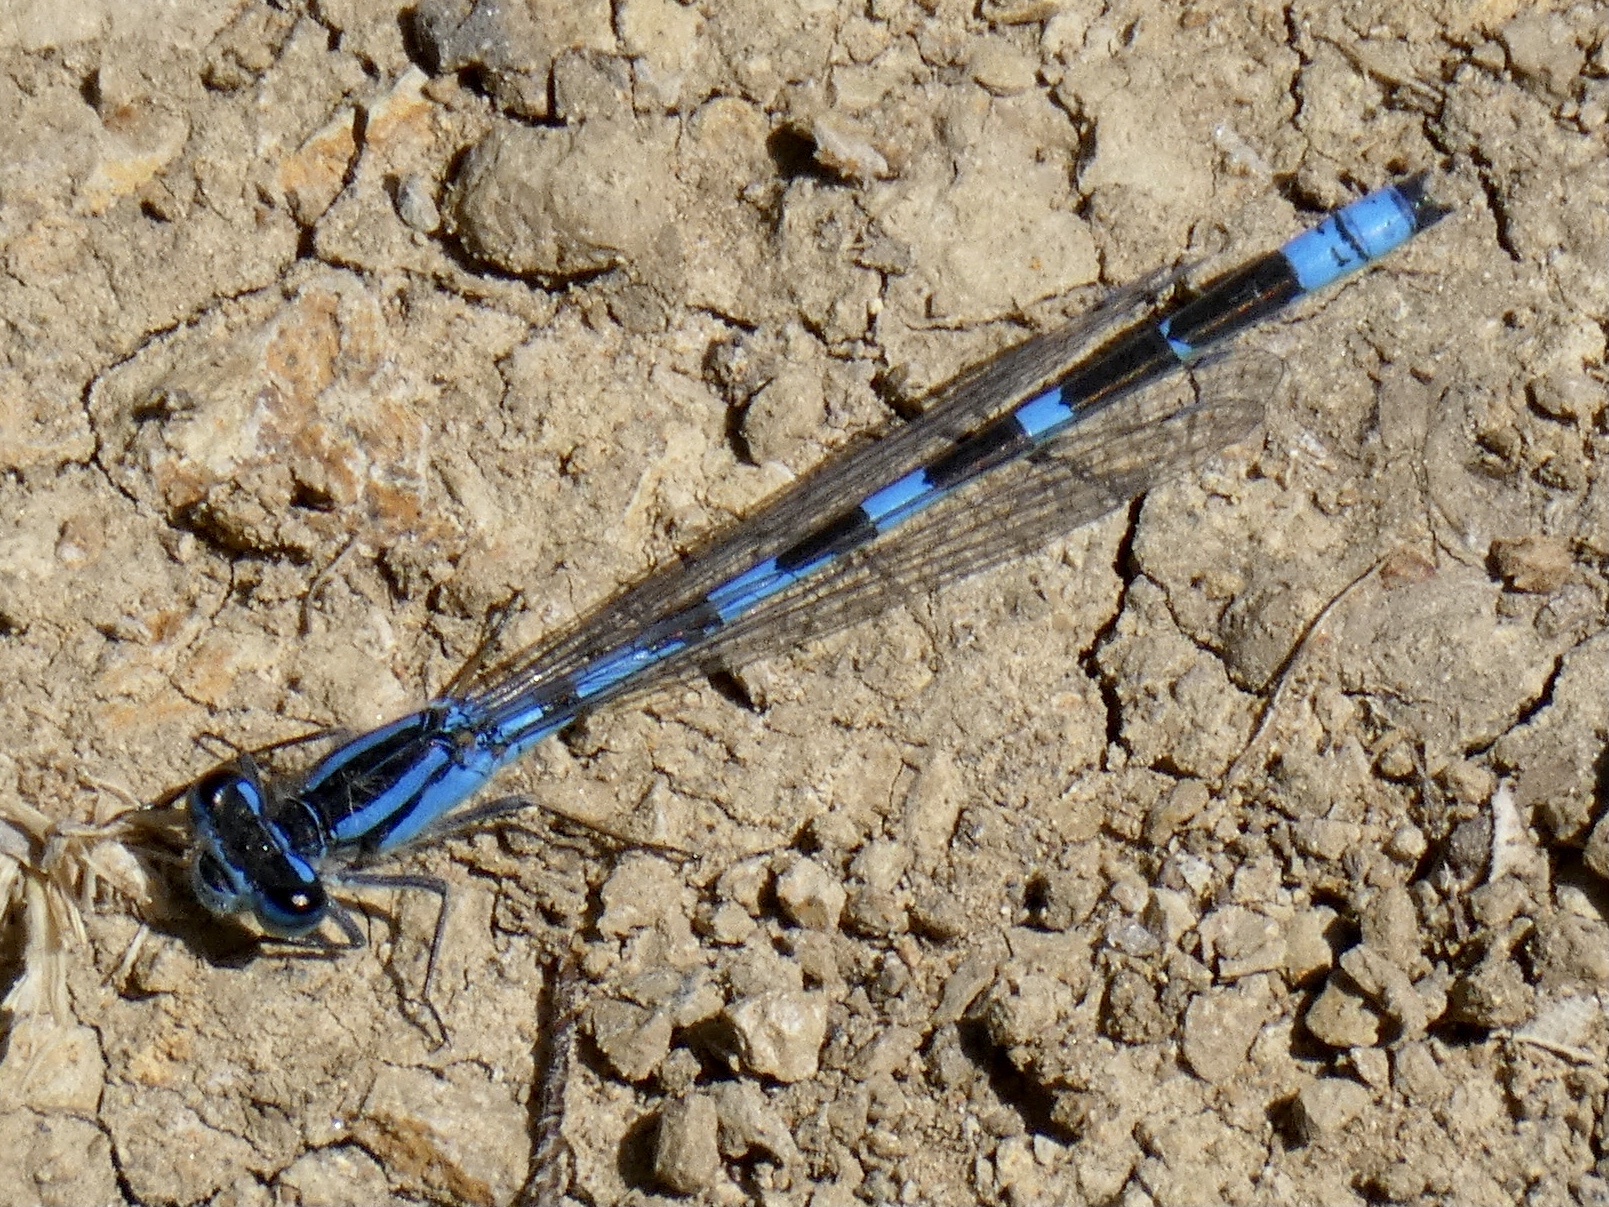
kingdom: Animalia
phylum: Arthropoda
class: Insecta
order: Odonata
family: Coenagrionidae
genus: Enallagma
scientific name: Enallagma carunculatum
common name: Tule bluet
